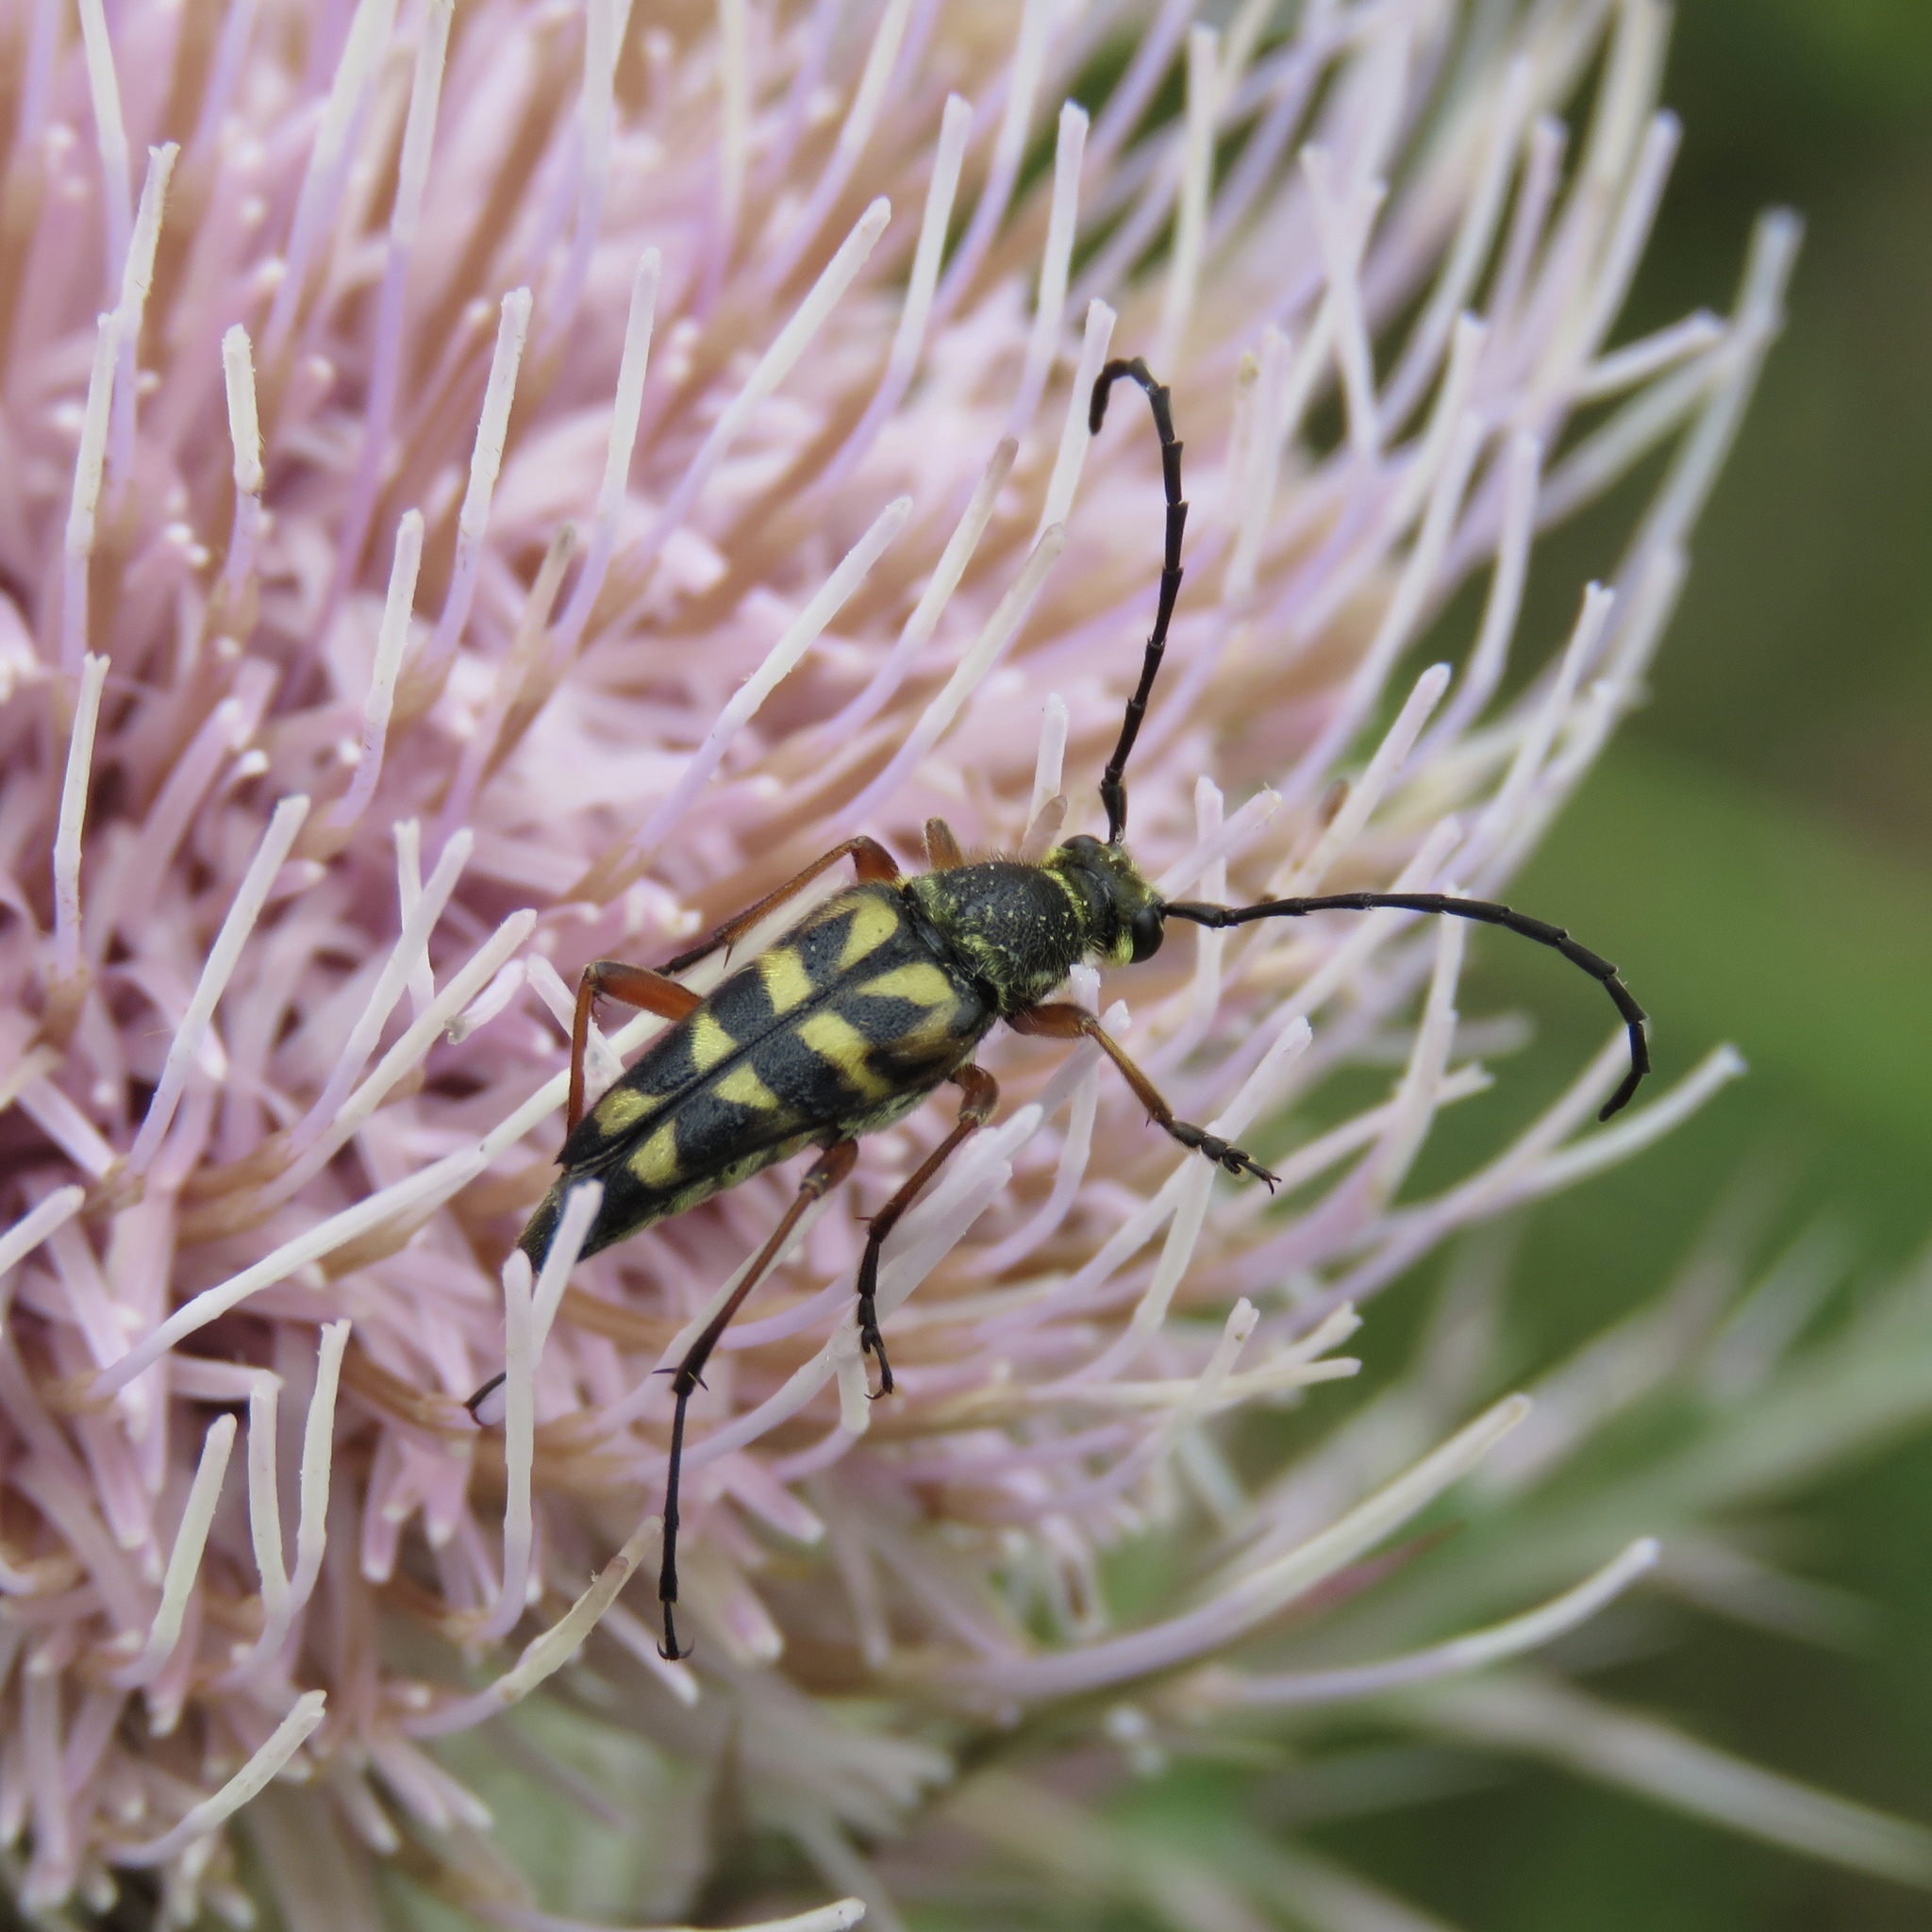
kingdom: Animalia
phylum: Arthropoda
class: Insecta
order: Coleoptera
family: Cerambycidae
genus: Typocerus
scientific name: Typocerus zebra
